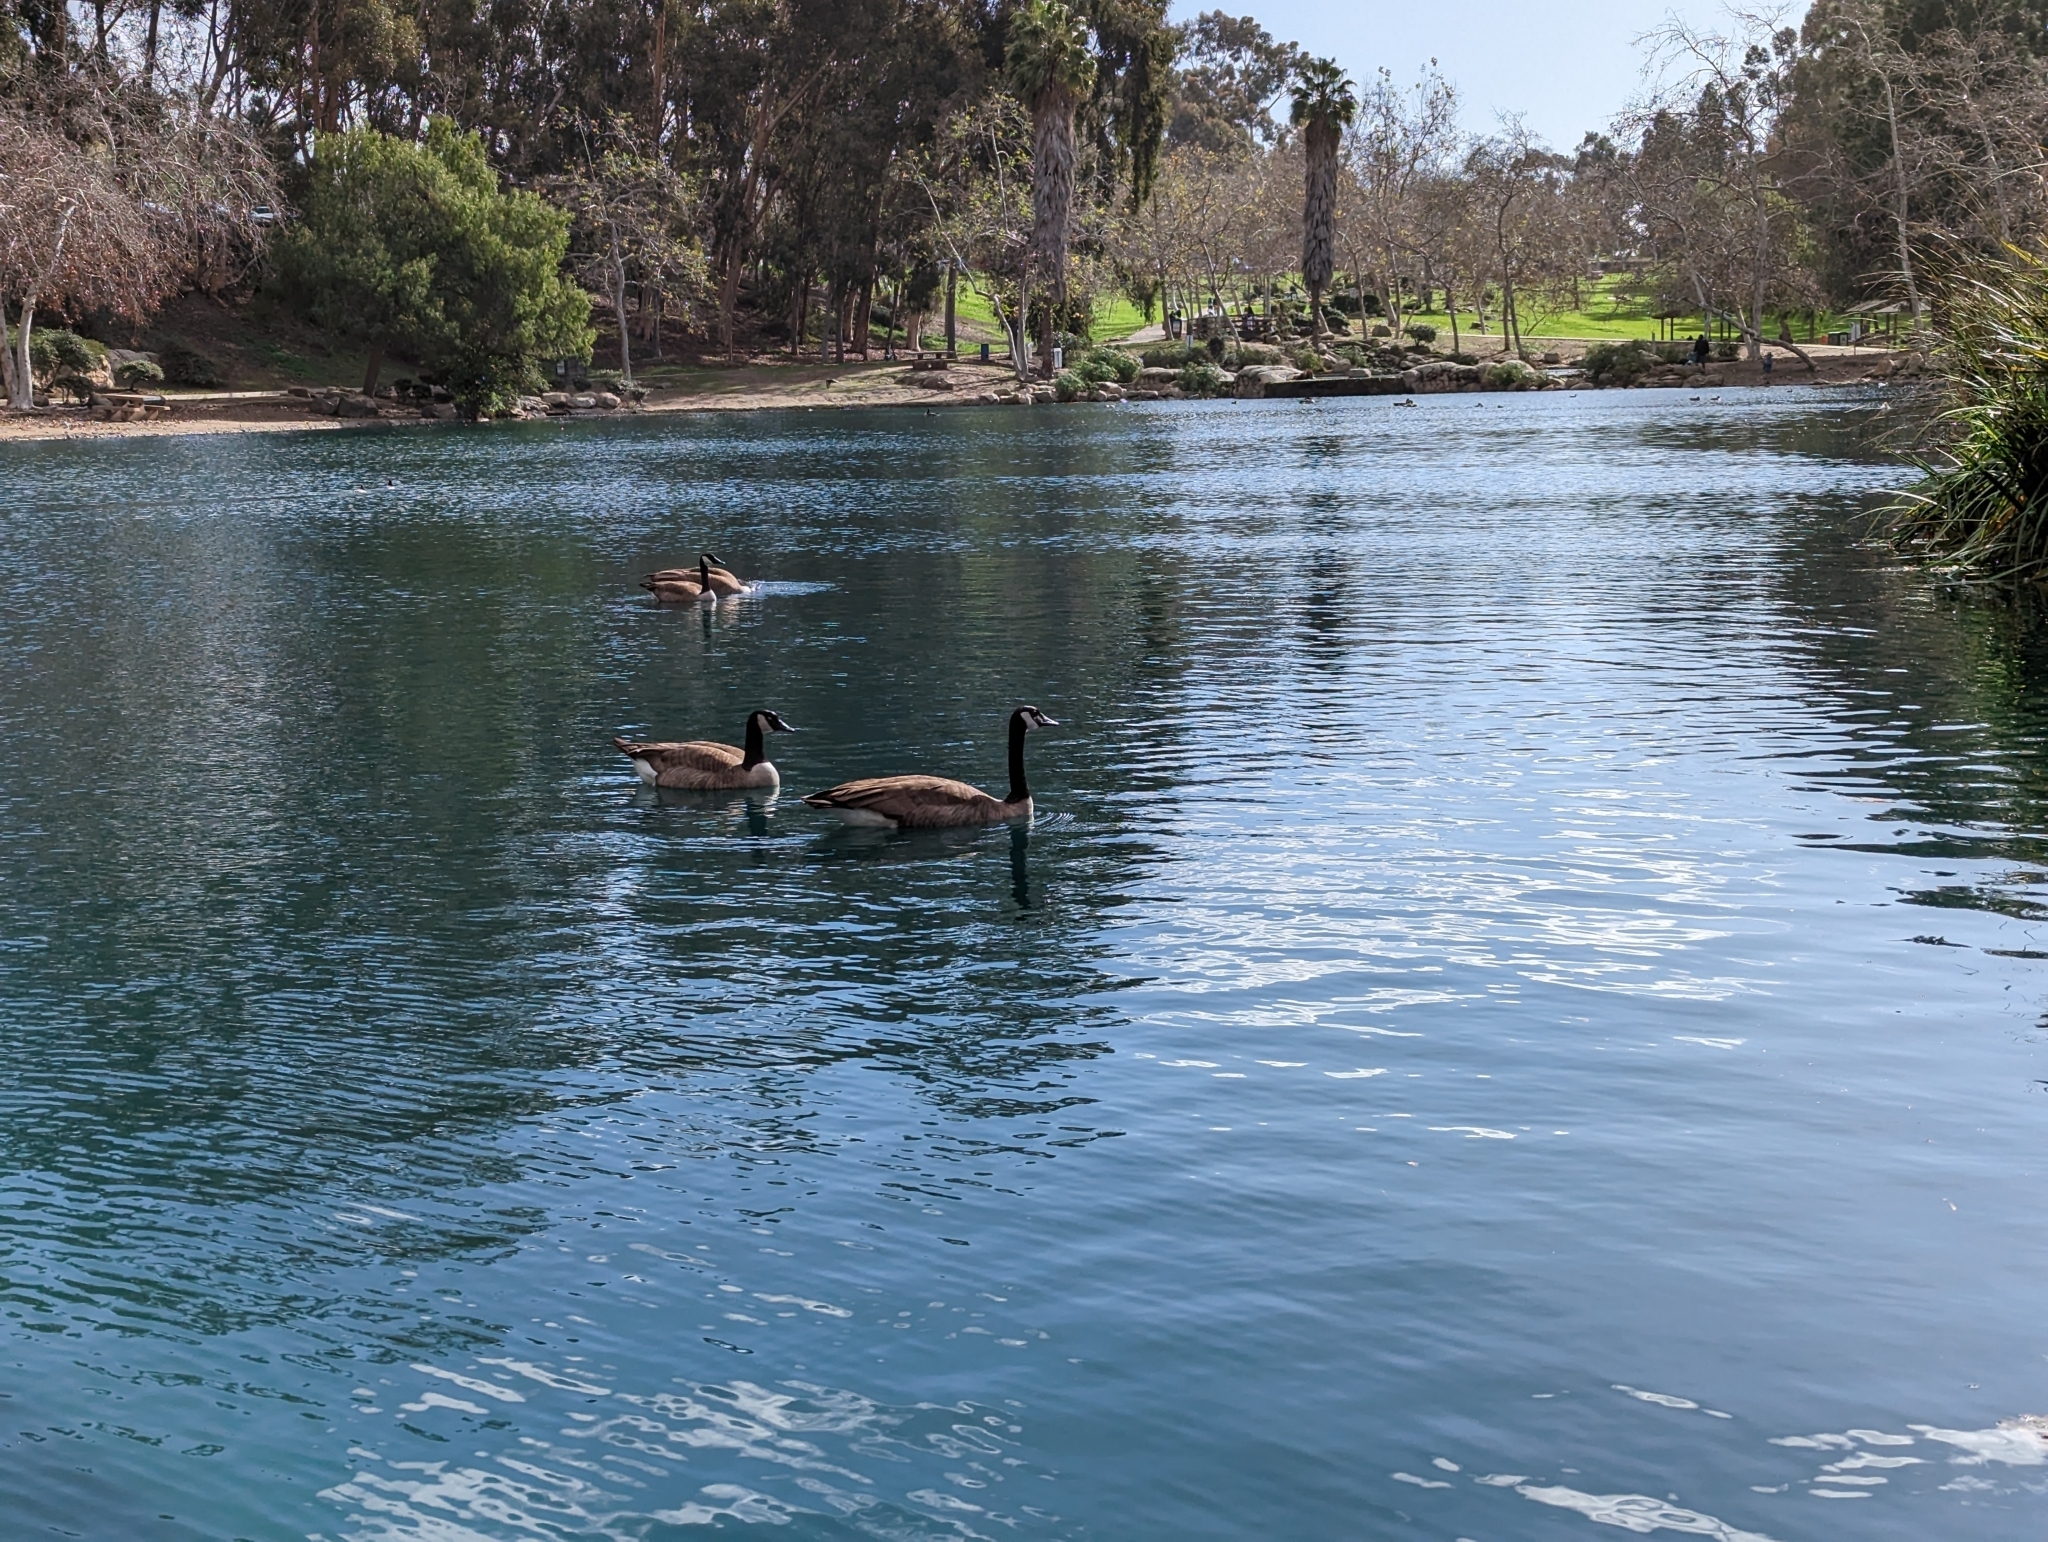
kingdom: Animalia
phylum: Chordata
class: Aves
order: Anseriformes
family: Anatidae
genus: Branta
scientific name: Branta canadensis
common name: Canada goose
